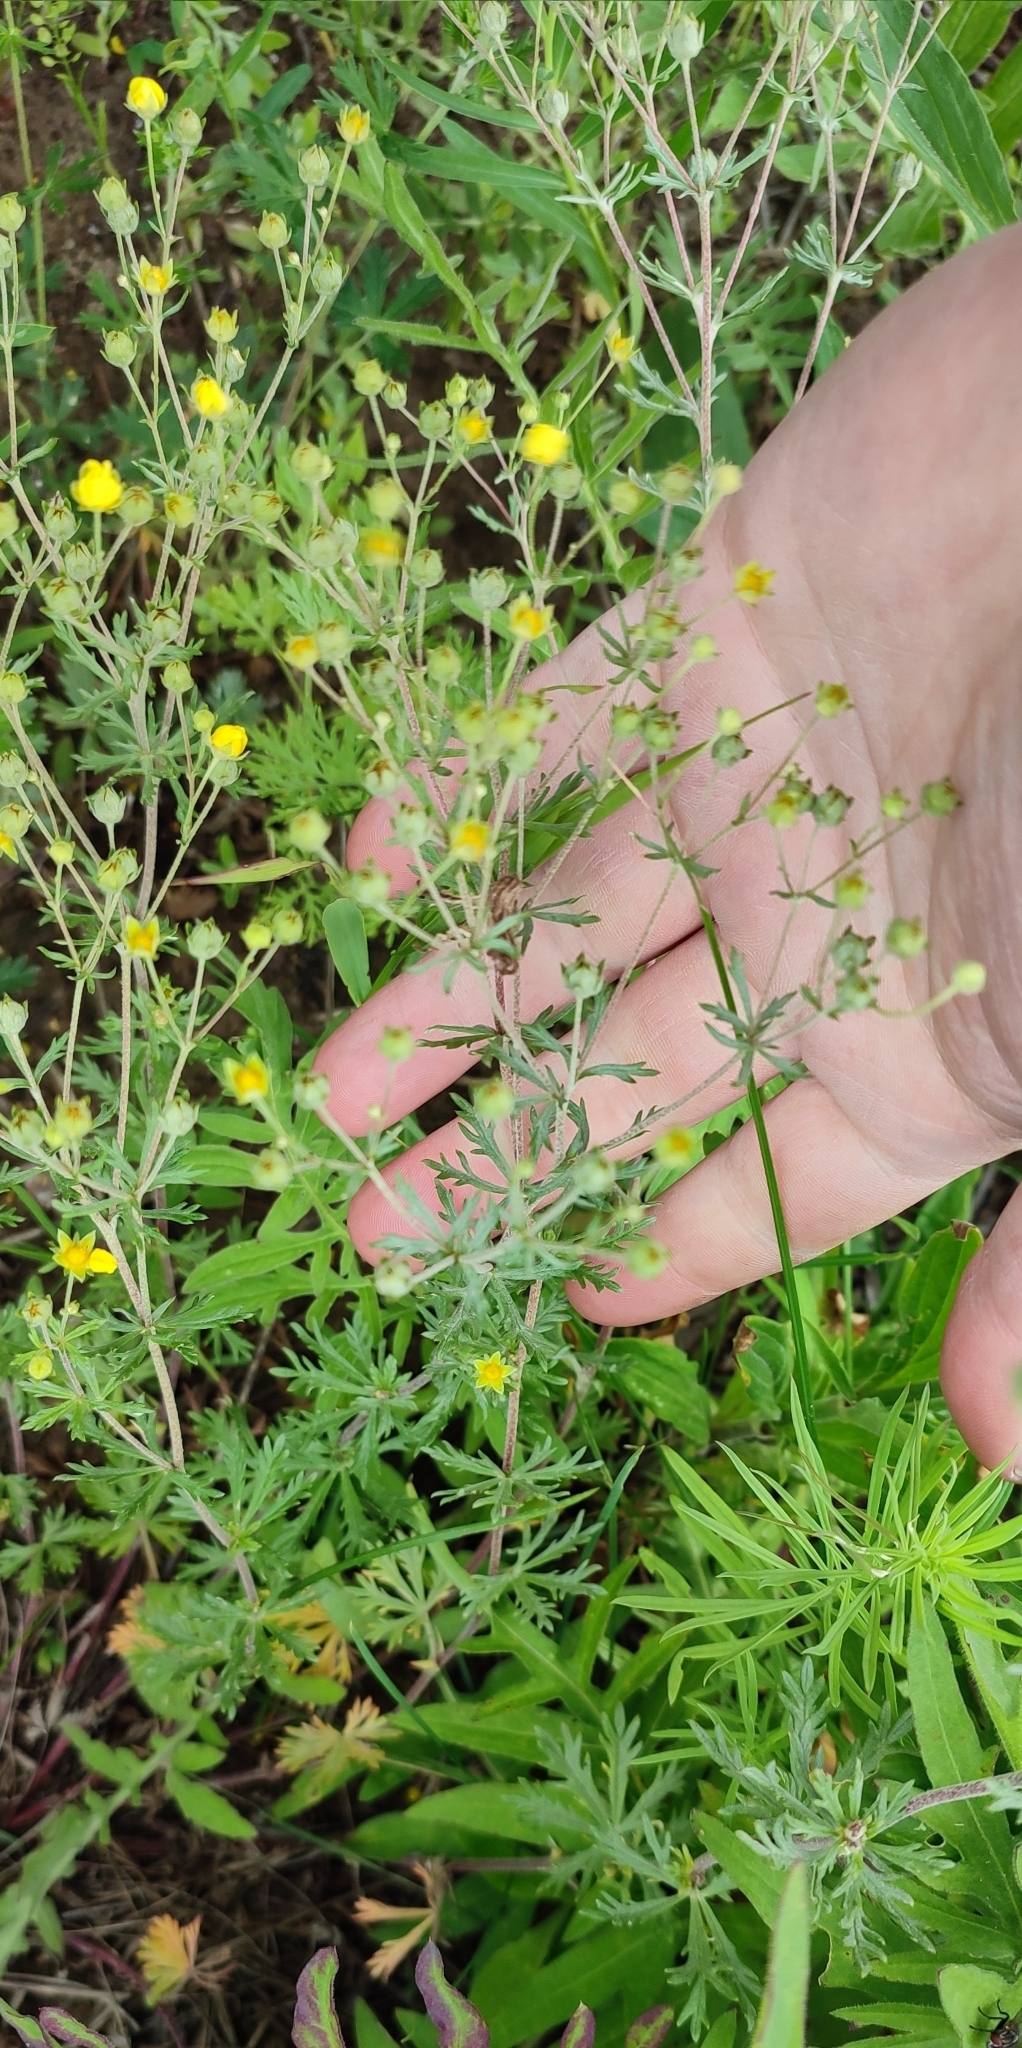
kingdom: Plantae
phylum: Tracheophyta
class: Magnoliopsida
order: Rosales
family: Rosaceae
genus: Potentilla
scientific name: Potentilla argentea
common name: Hoary cinquefoil
